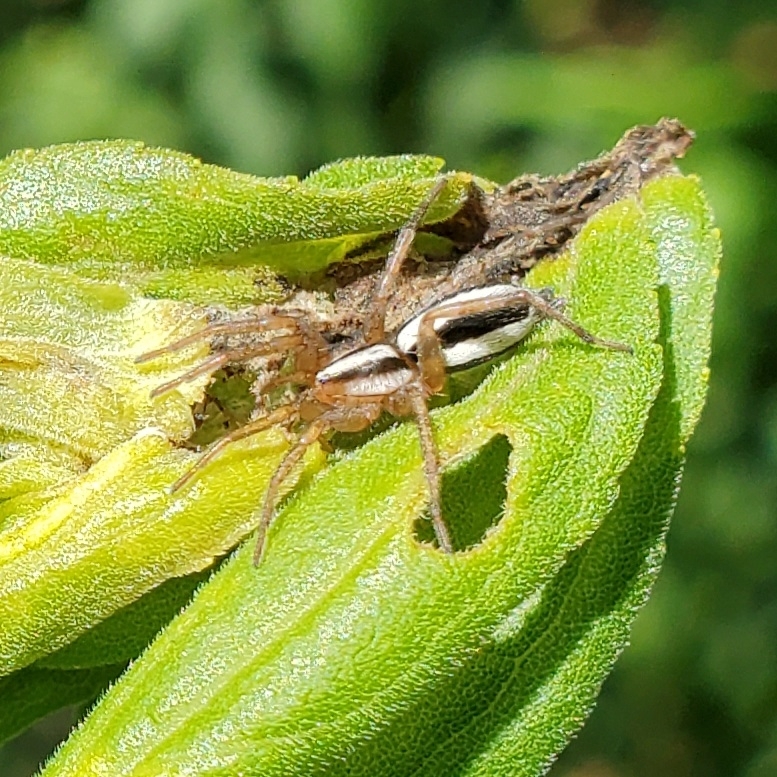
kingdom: Animalia
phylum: Arthropoda
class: Arachnida
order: Araneae
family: Gnaphosidae
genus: Cesonia
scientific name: Cesonia bilineata
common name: Two-lined stealthy ground spider
